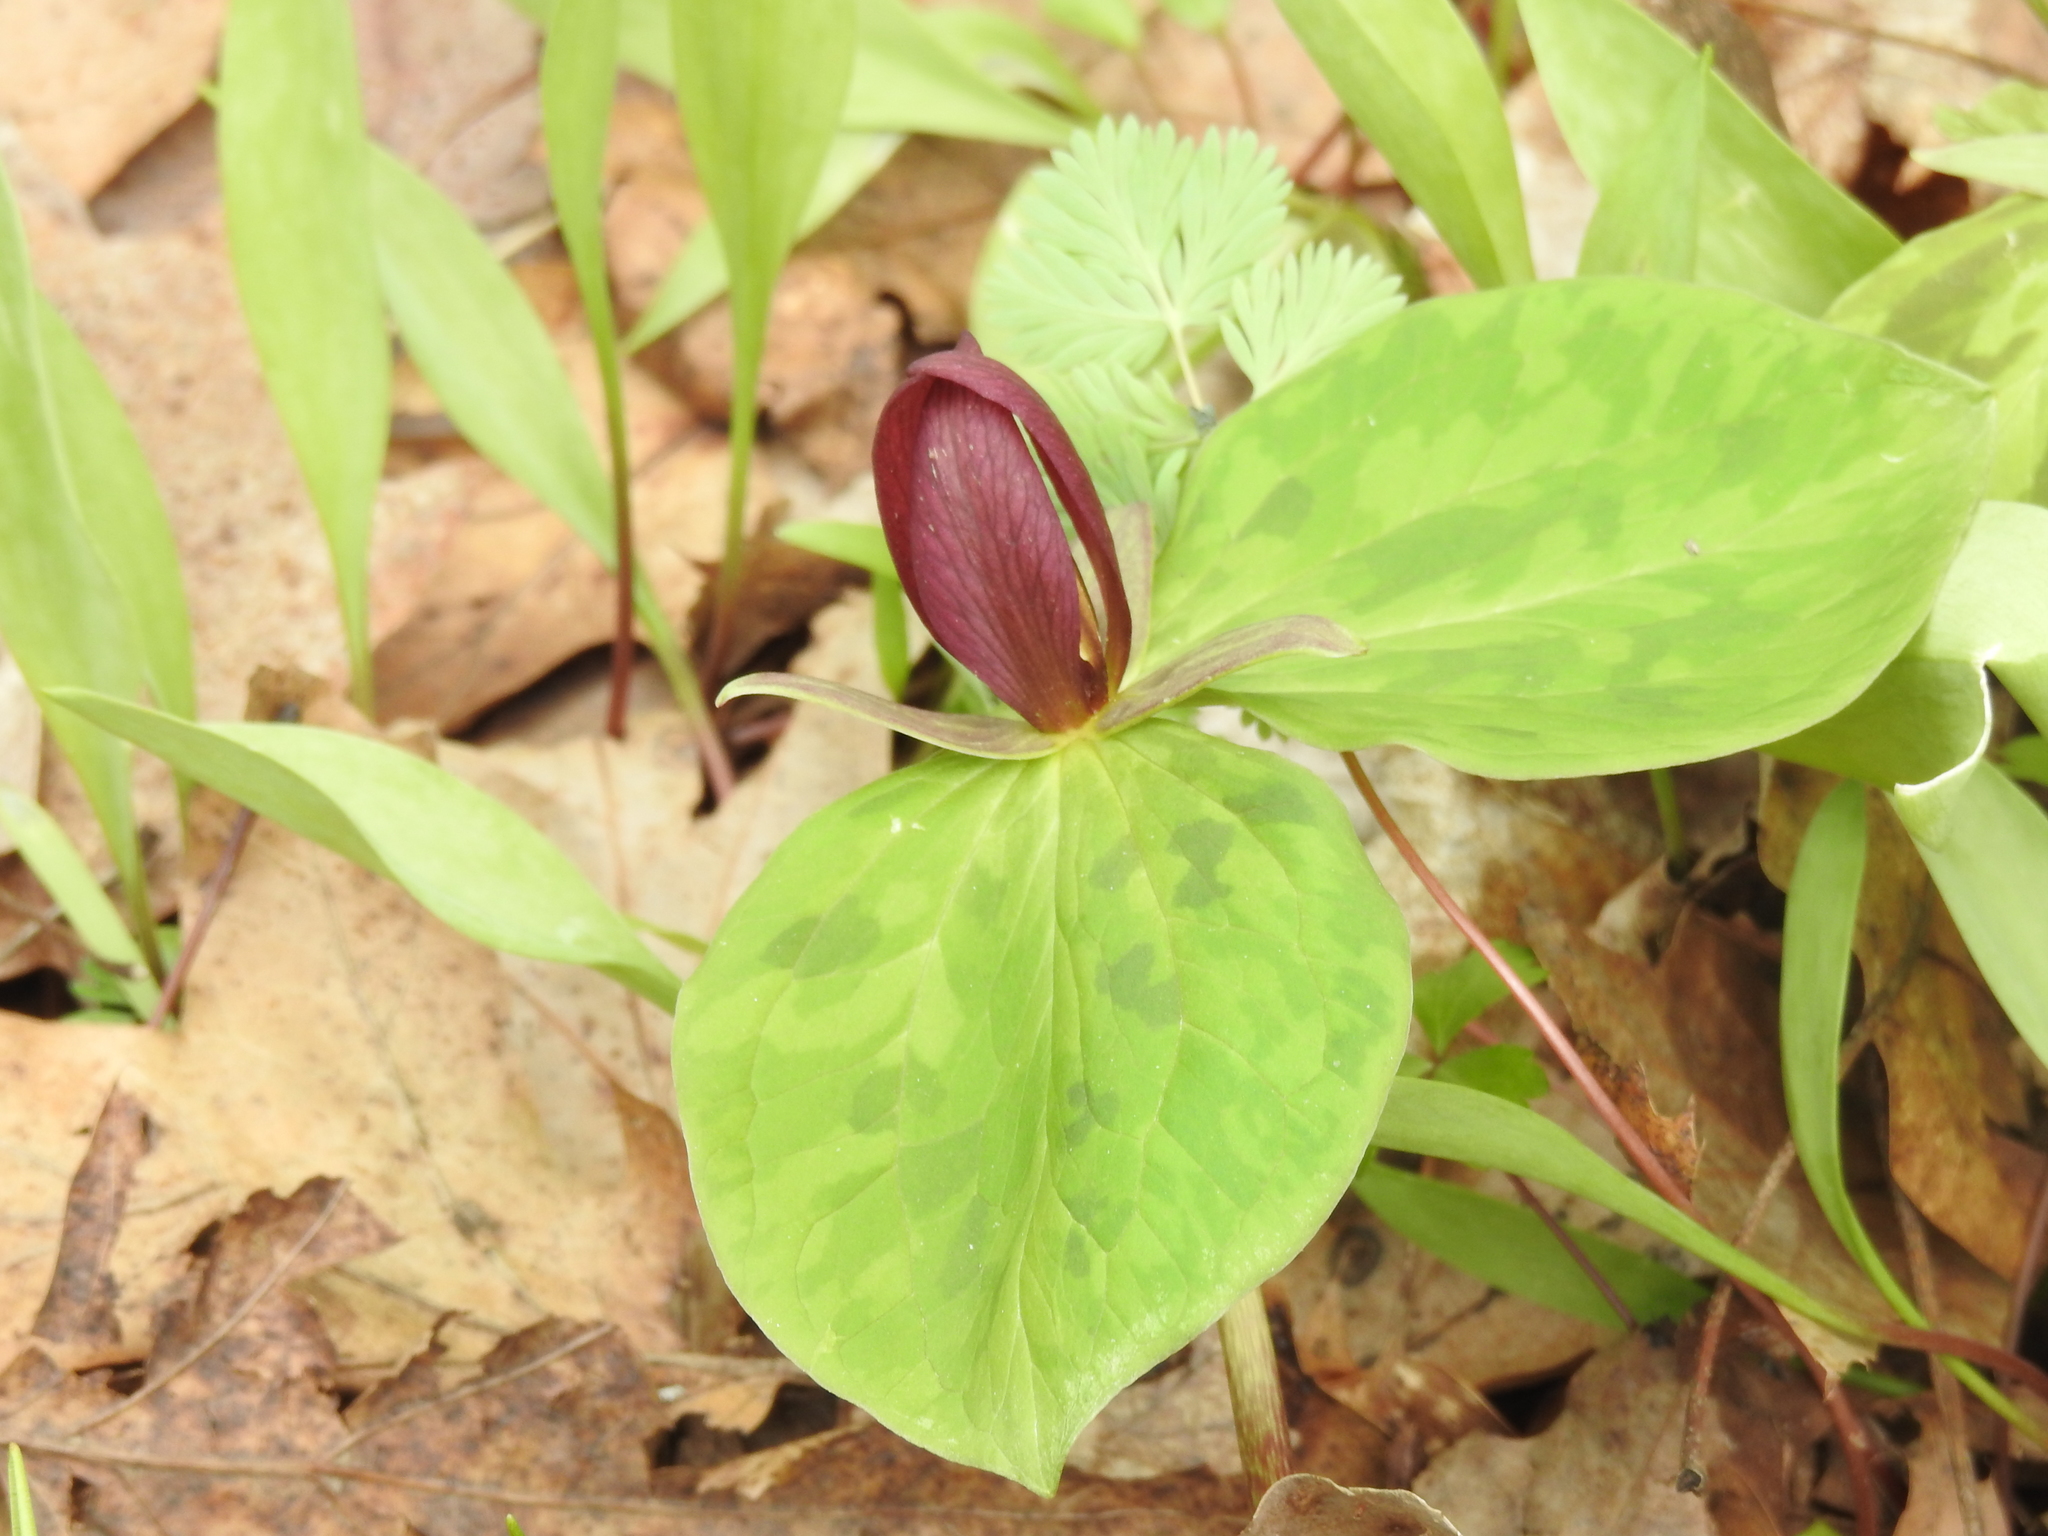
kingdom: Plantae
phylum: Tracheophyta
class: Liliopsida
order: Liliales
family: Melanthiaceae
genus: Trillium
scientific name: Trillium sessile
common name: Sessile trillium
